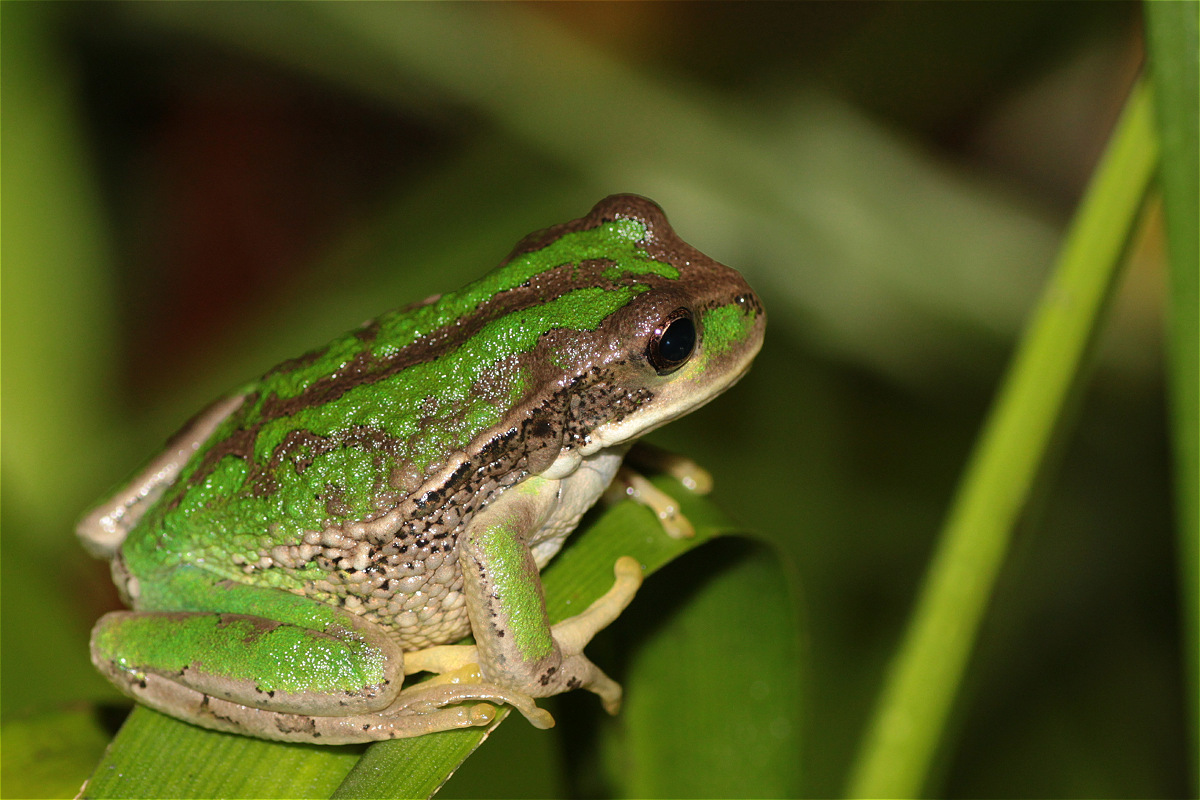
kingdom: Animalia
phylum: Chordata
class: Amphibia
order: Anura
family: Hemiphractidae
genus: Gastrotheca
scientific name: Gastrotheca cuencana
